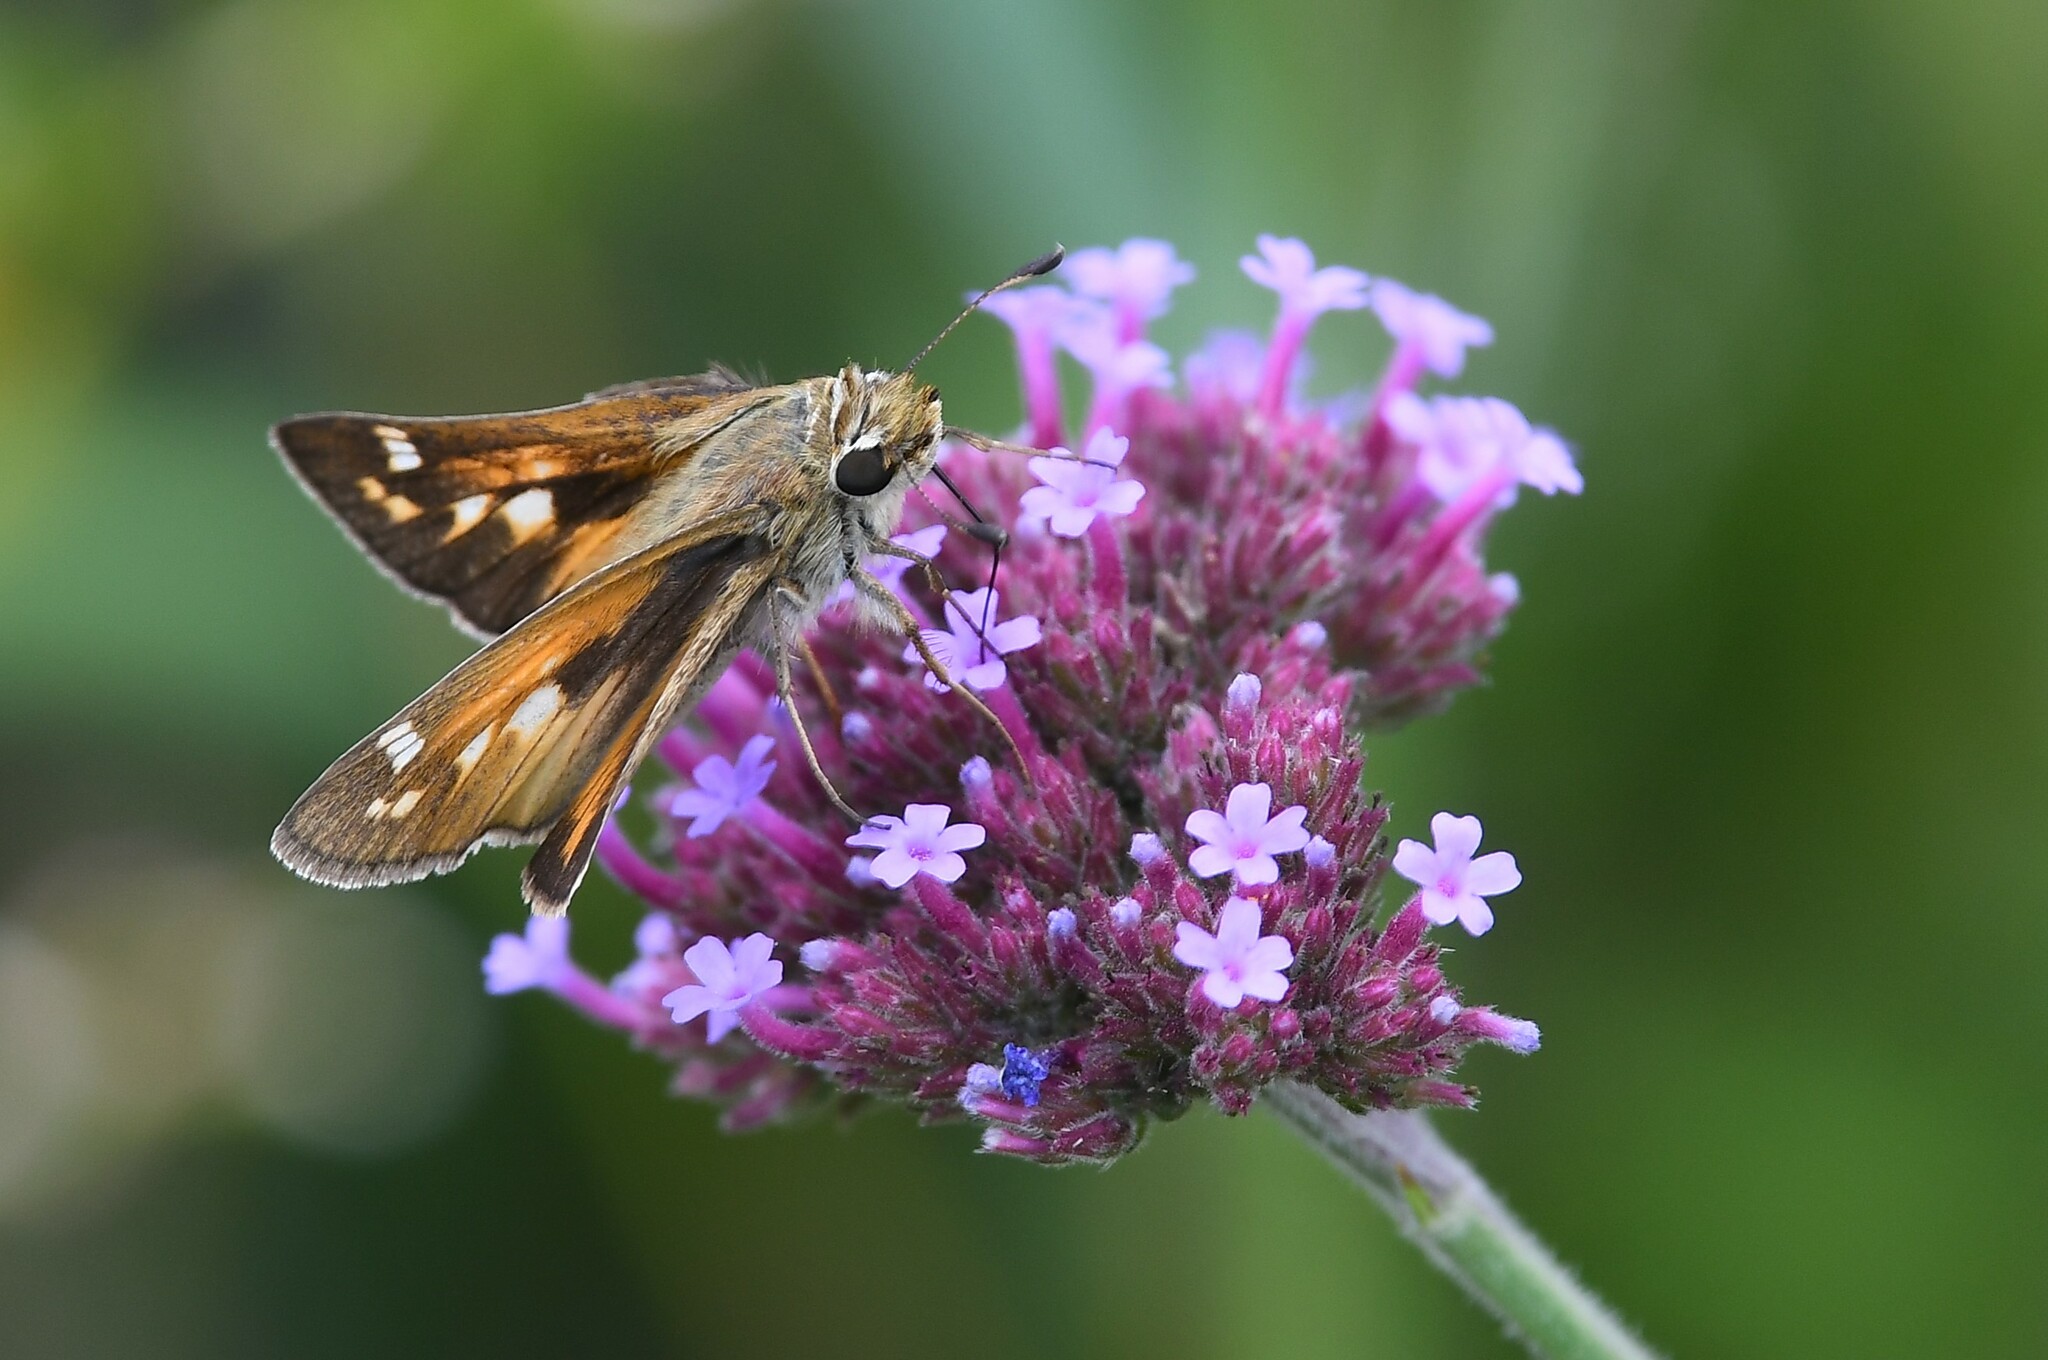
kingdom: Animalia
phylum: Arthropoda
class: Insecta
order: Lepidoptera
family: Hesperiidae
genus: Atalopedes
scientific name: Atalopedes
